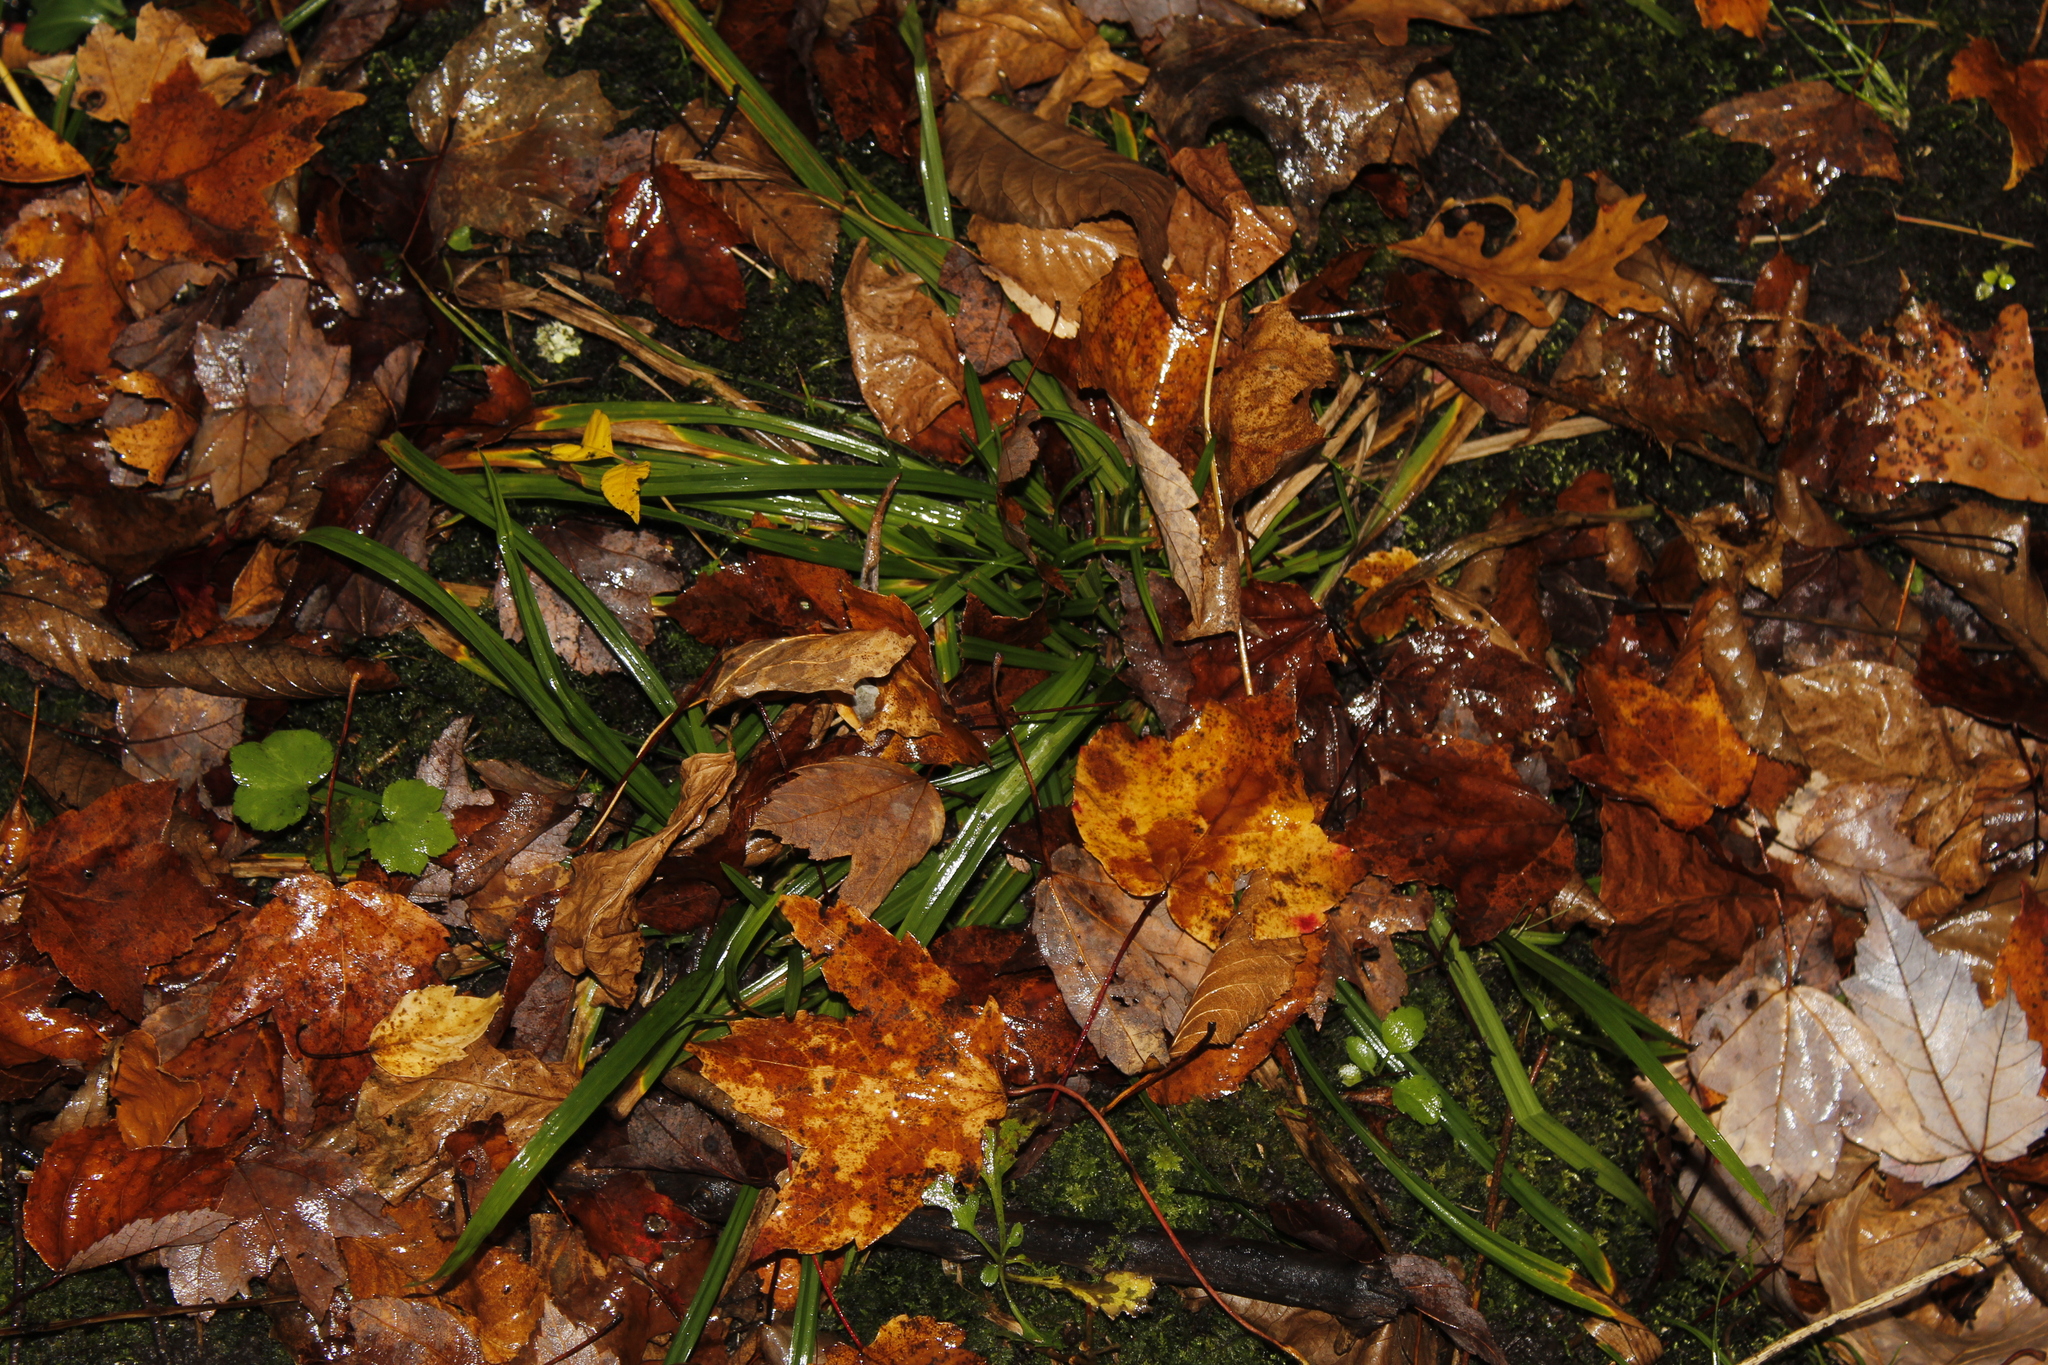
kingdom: Plantae
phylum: Tracheophyta
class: Liliopsida
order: Poales
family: Cyperaceae
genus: Carex
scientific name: Carex
